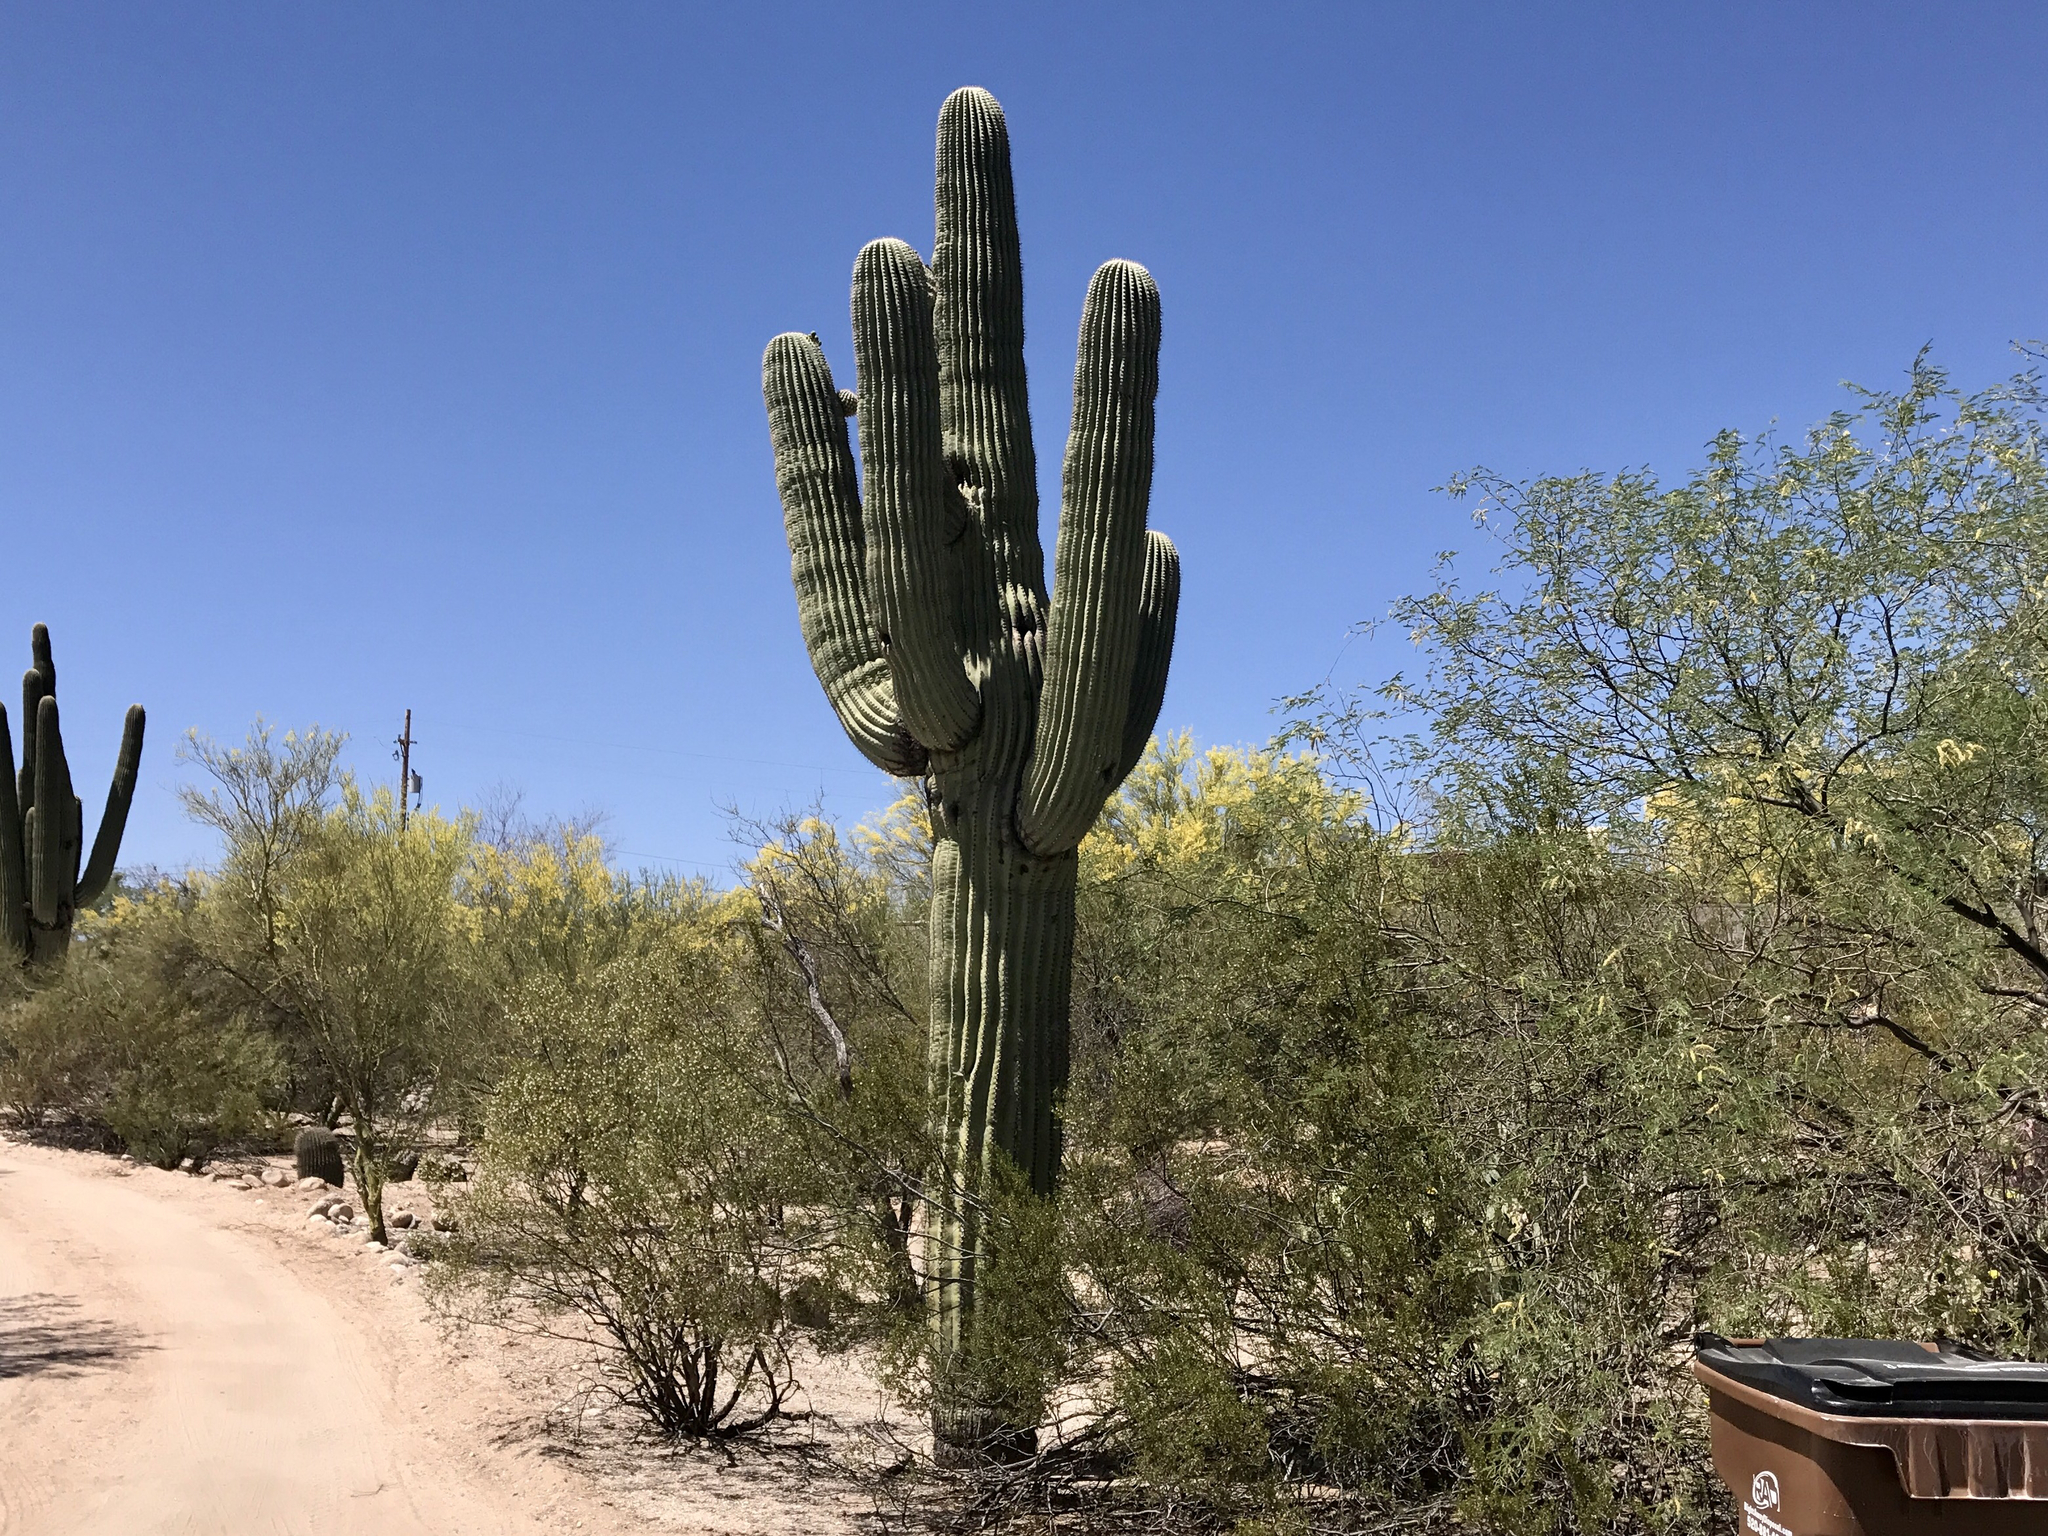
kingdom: Plantae
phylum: Tracheophyta
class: Magnoliopsida
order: Caryophyllales
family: Cactaceae
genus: Carnegiea
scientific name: Carnegiea gigantea
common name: Saguaro
